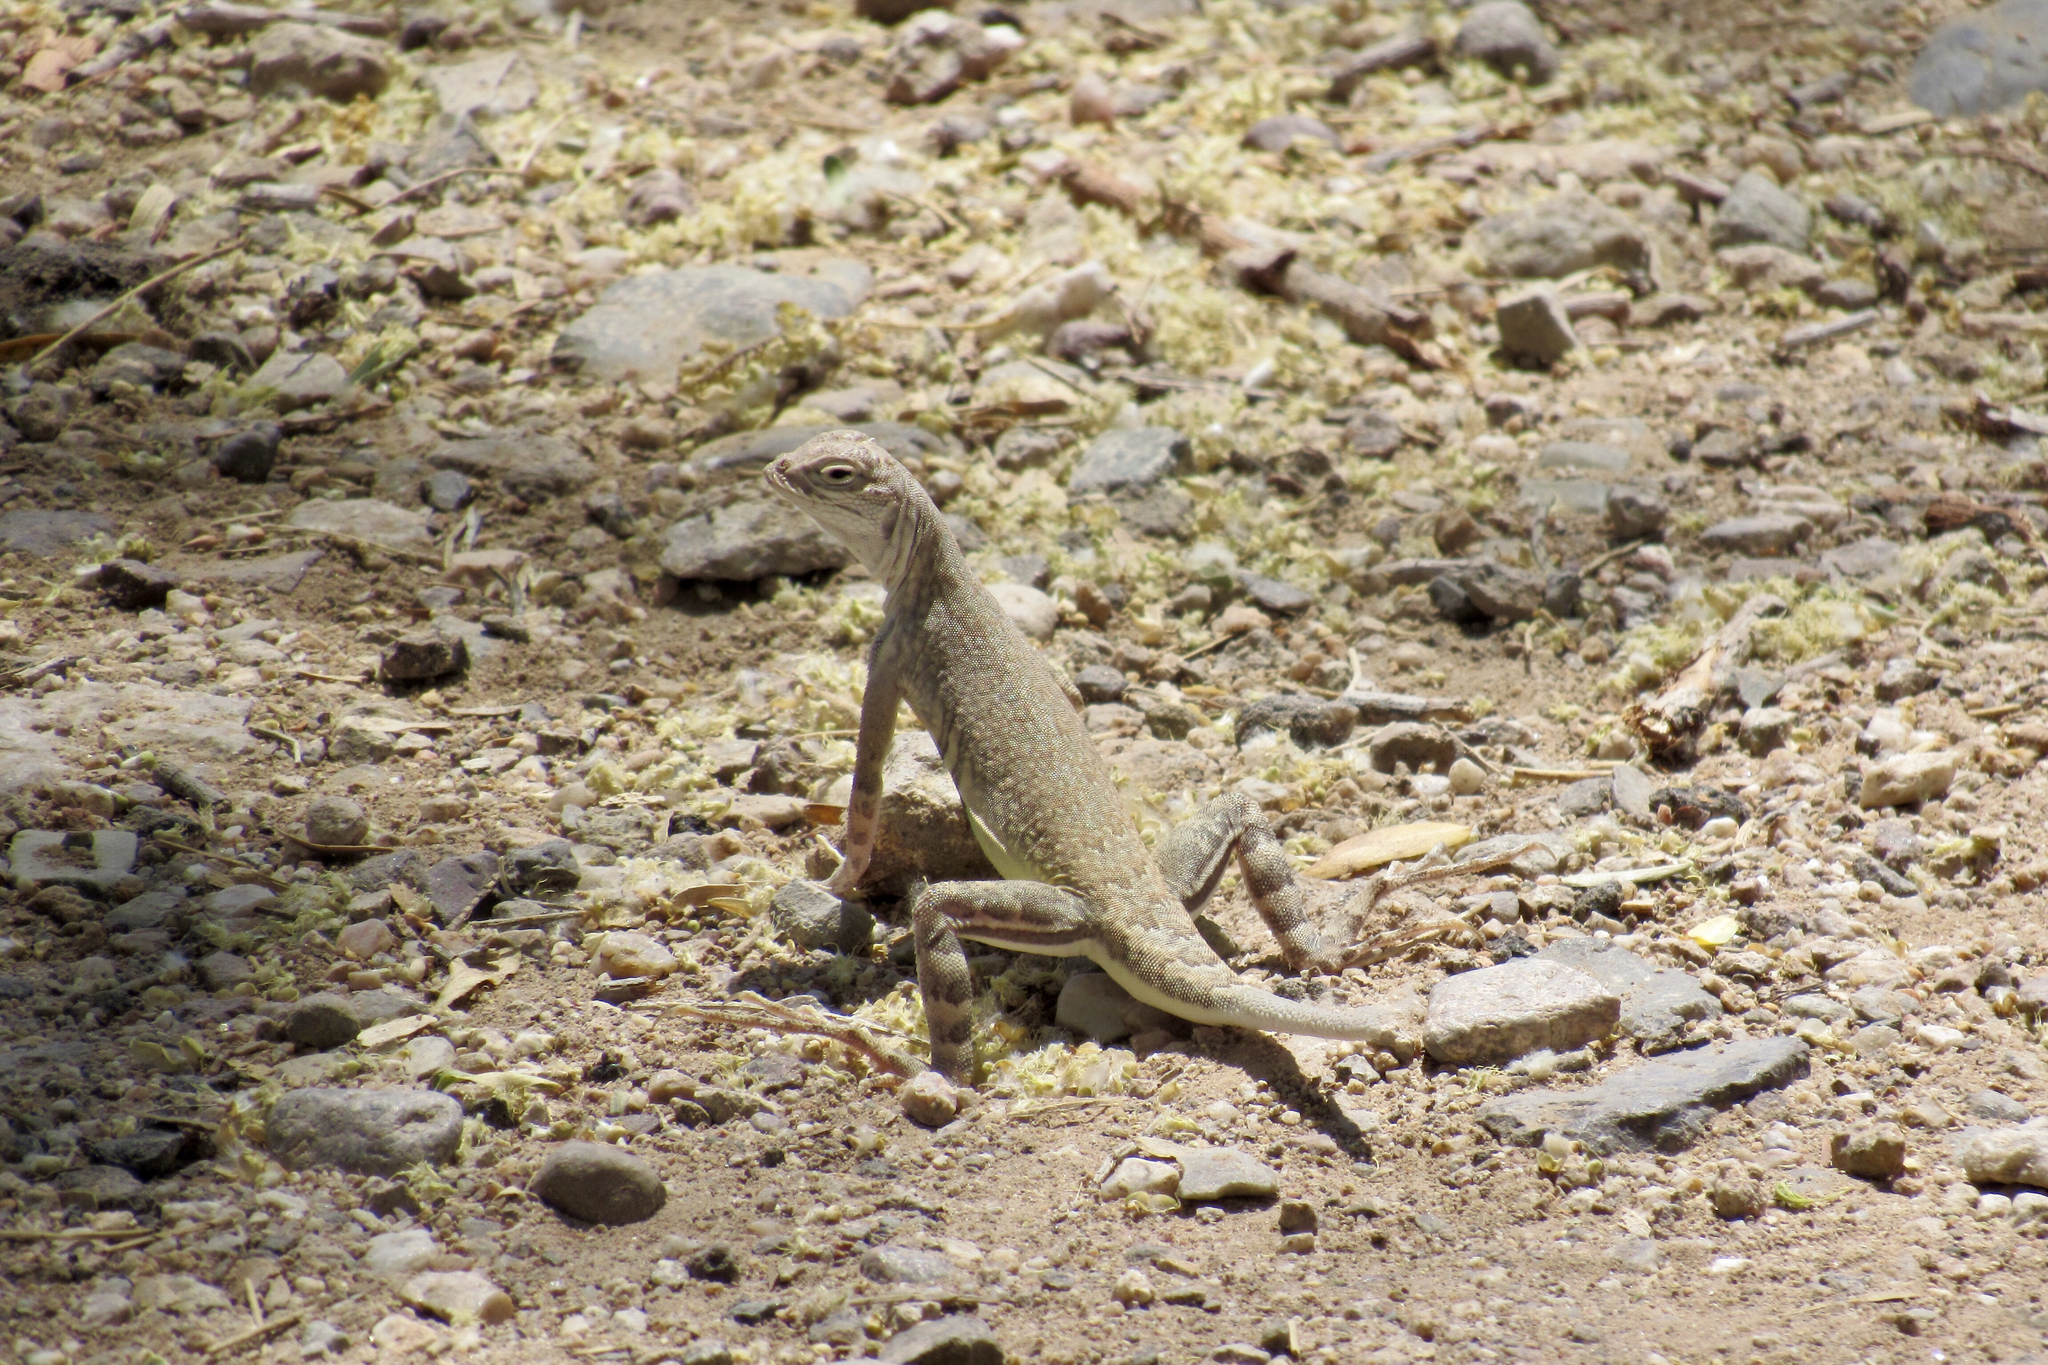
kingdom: Animalia
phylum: Chordata
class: Squamata
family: Phrynosomatidae
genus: Callisaurus
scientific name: Callisaurus draconoides
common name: Zebra-tailed lizard
